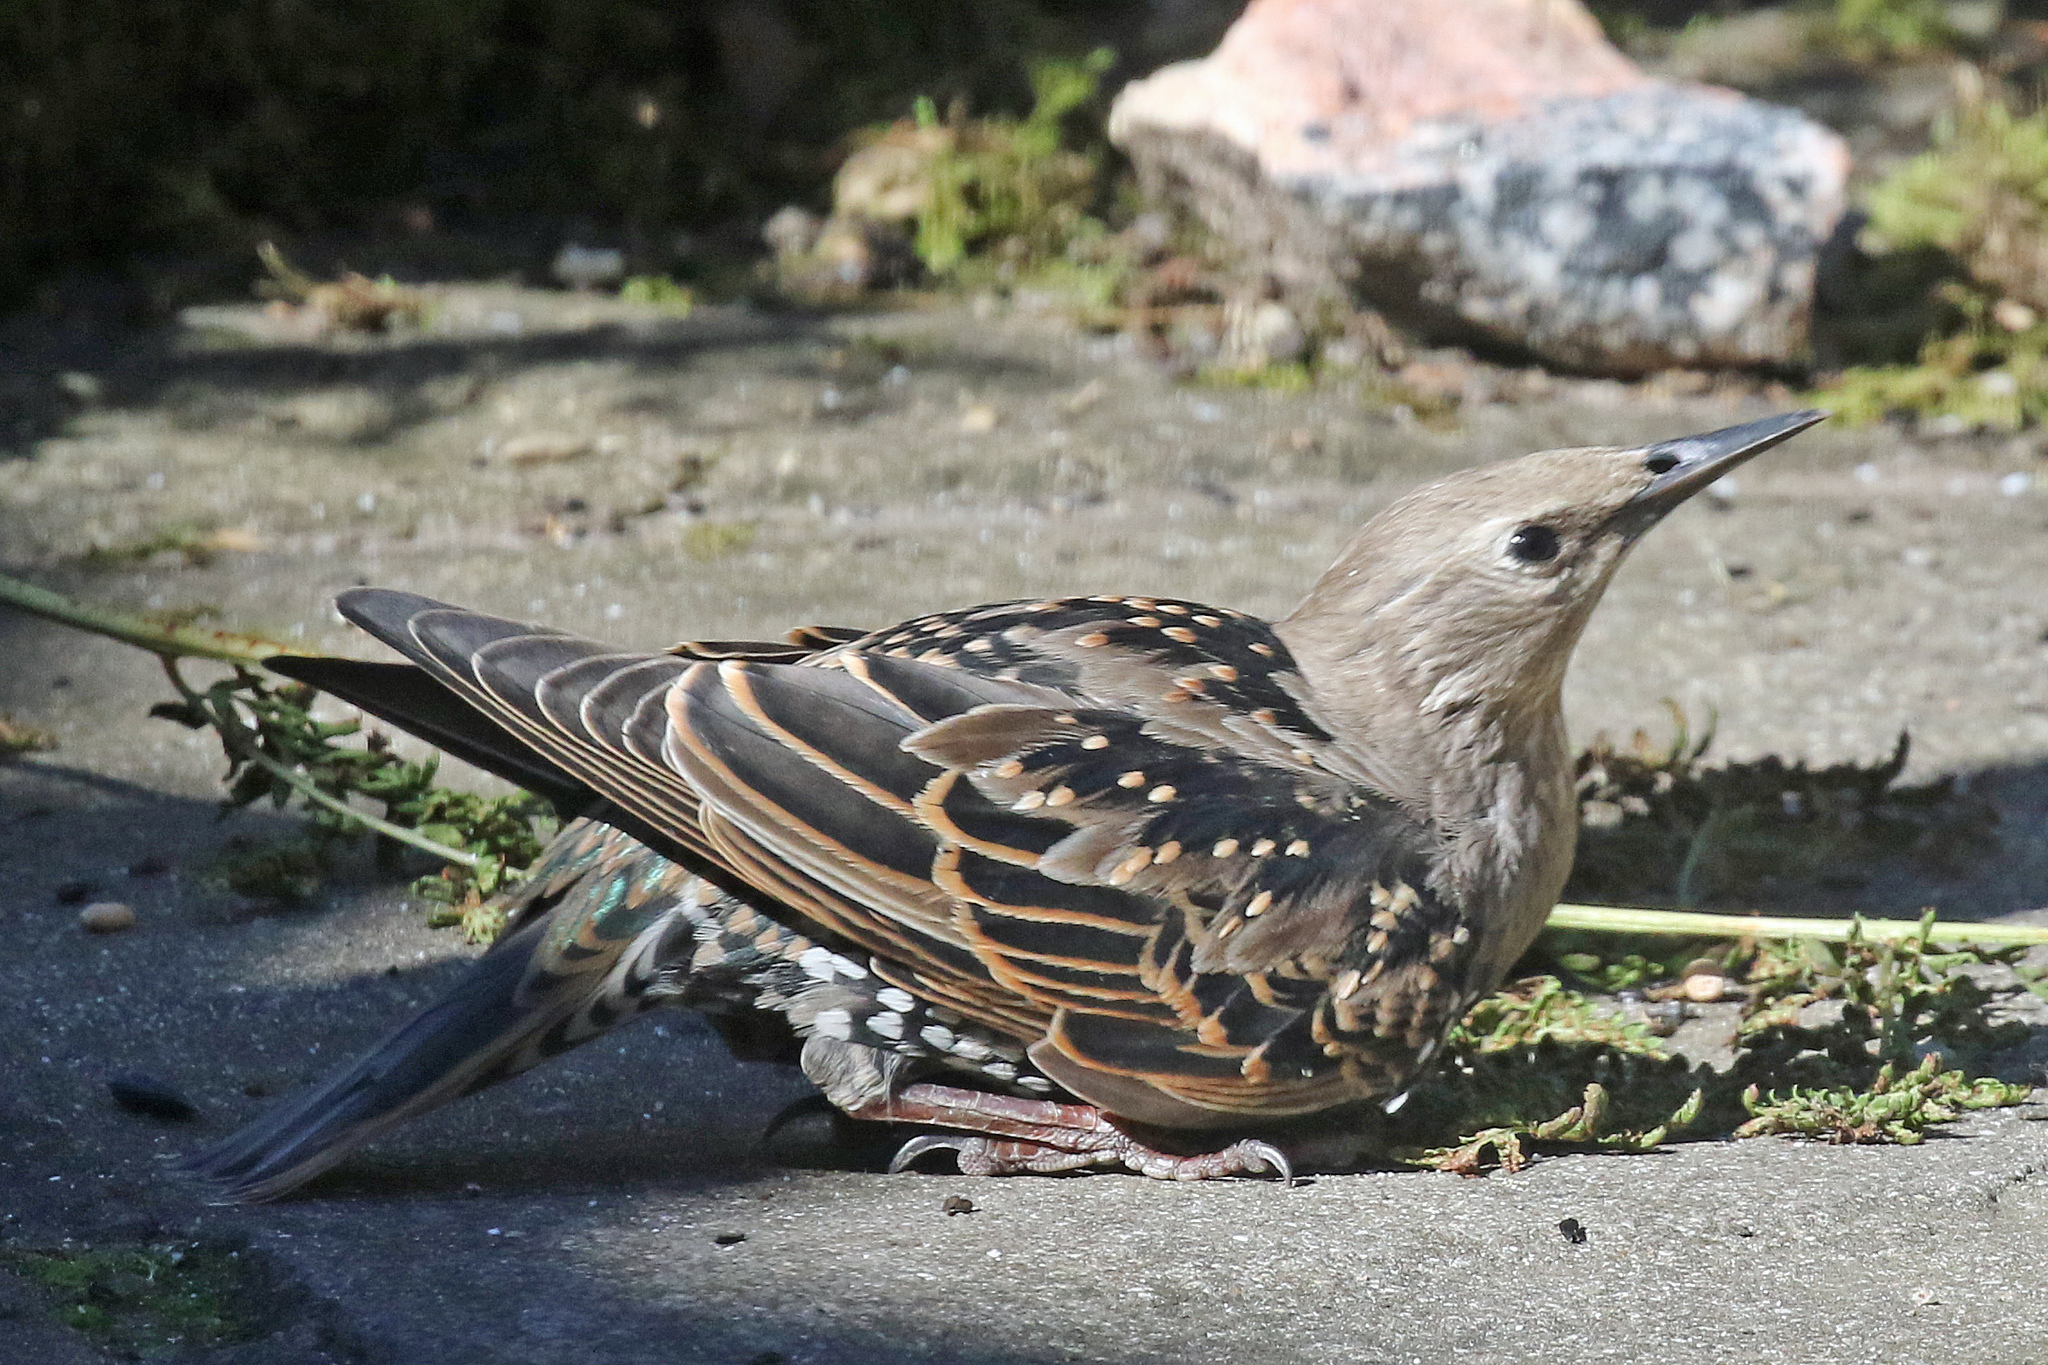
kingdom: Animalia
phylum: Chordata
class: Aves
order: Passeriformes
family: Sturnidae
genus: Sturnus
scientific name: Sturnus vulgaris
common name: Common starling
